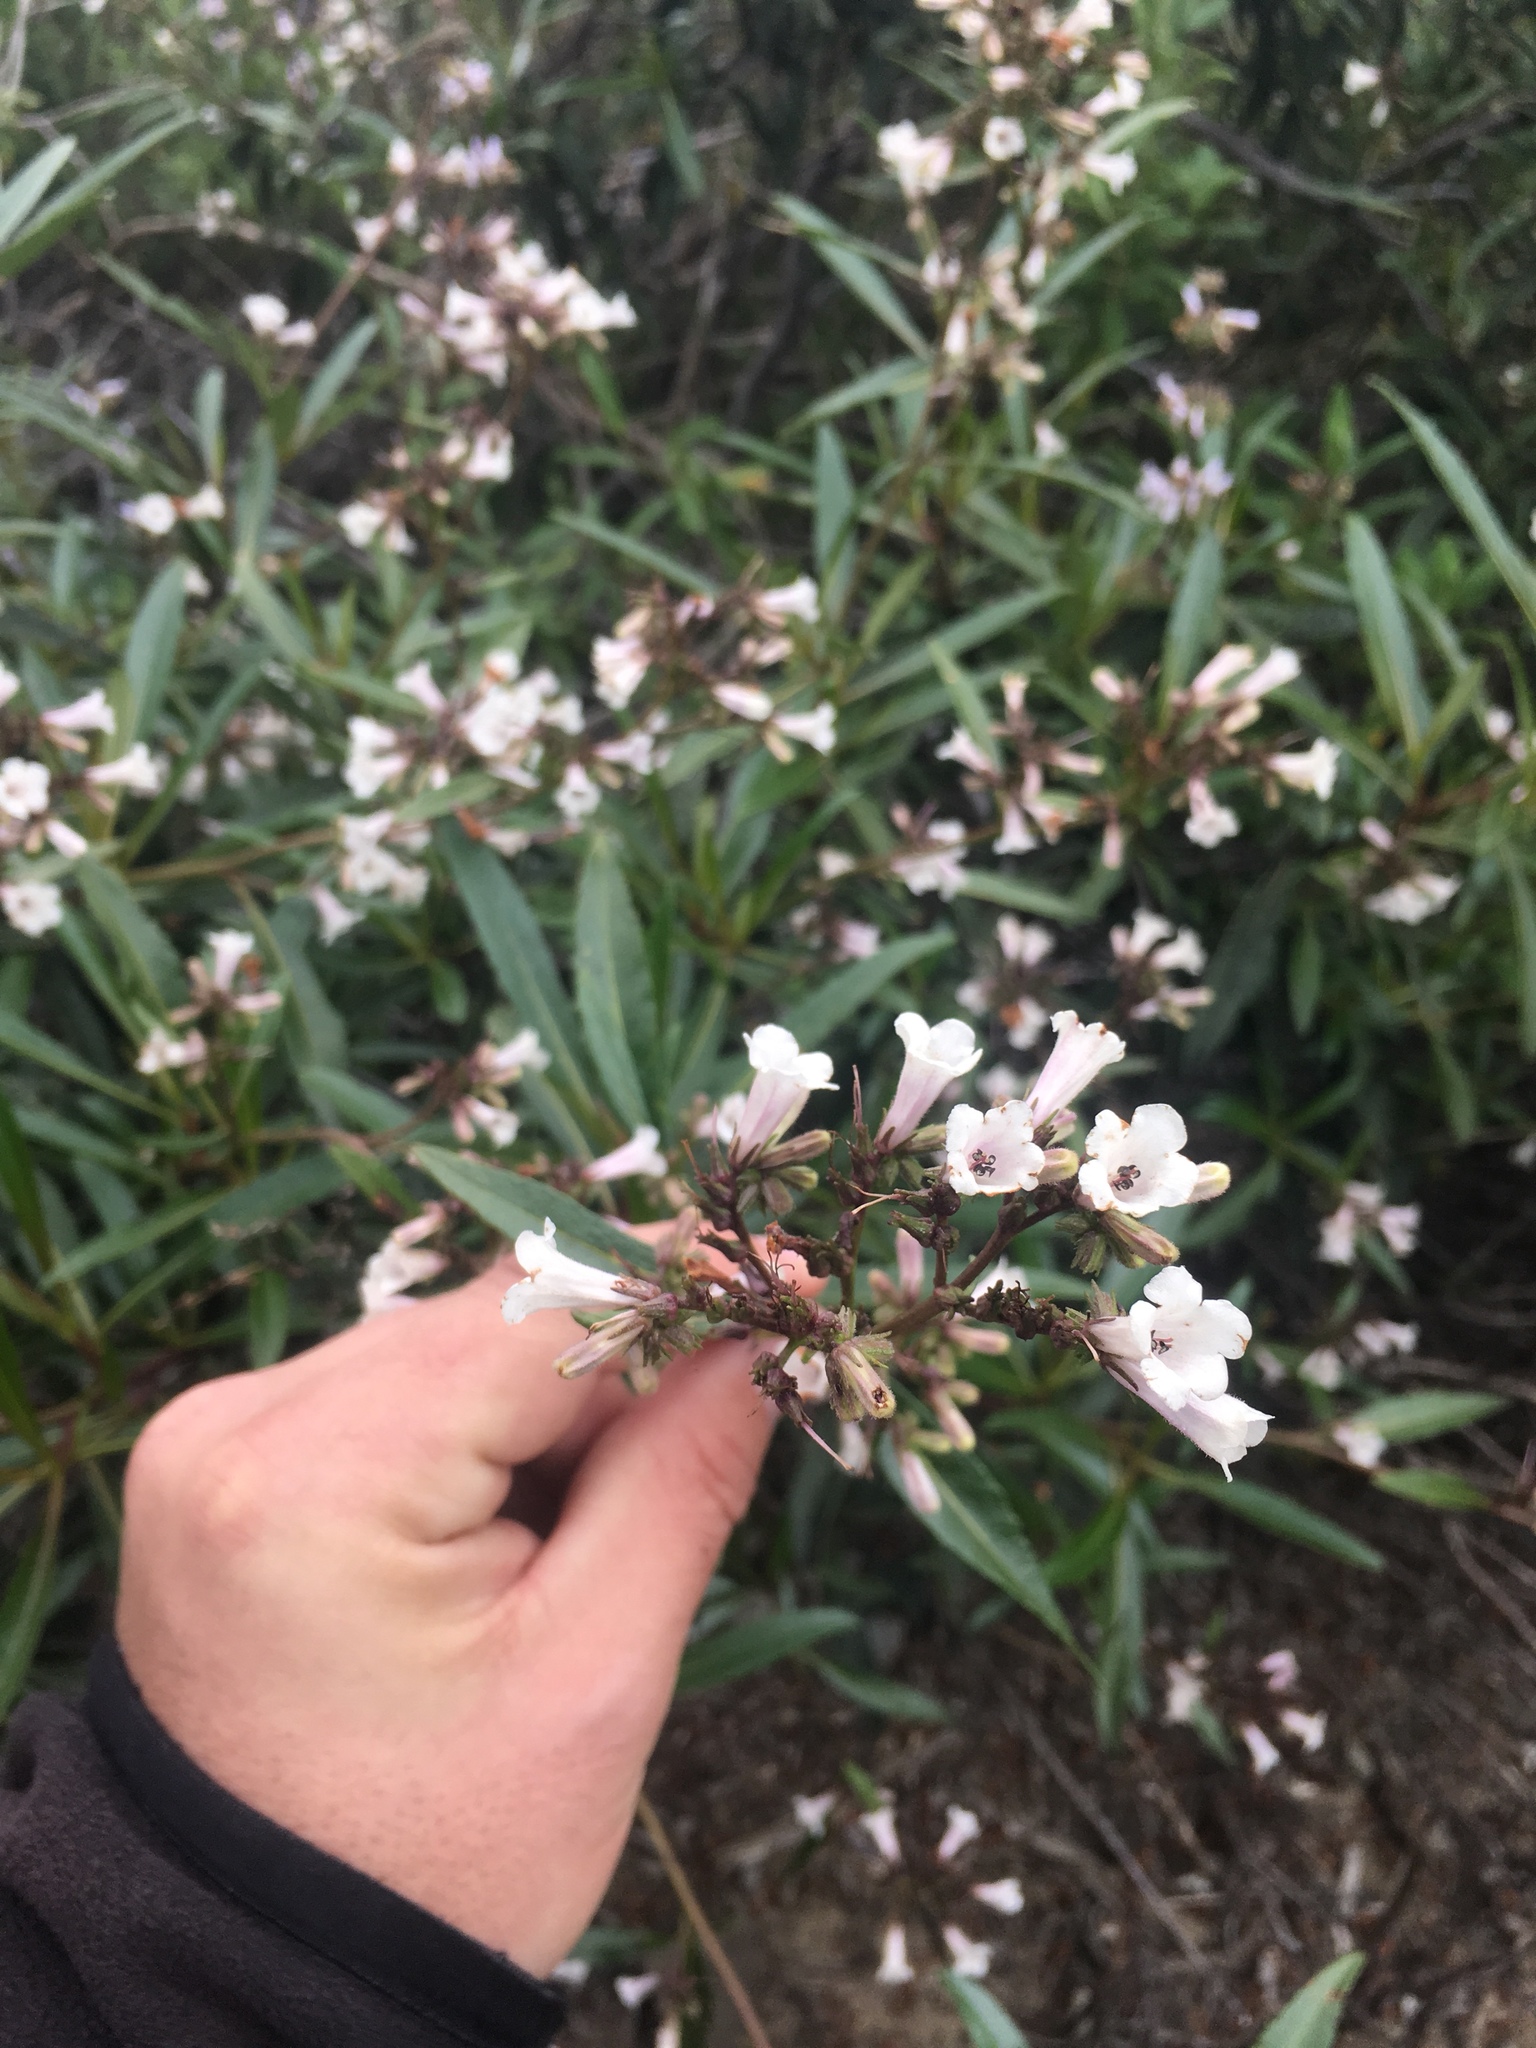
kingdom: Plantae
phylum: Tracheophyta
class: Magnoliopsida
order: Boraginales
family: Namaceae
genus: Eriodictyon
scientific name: Eriodictyon californicum
